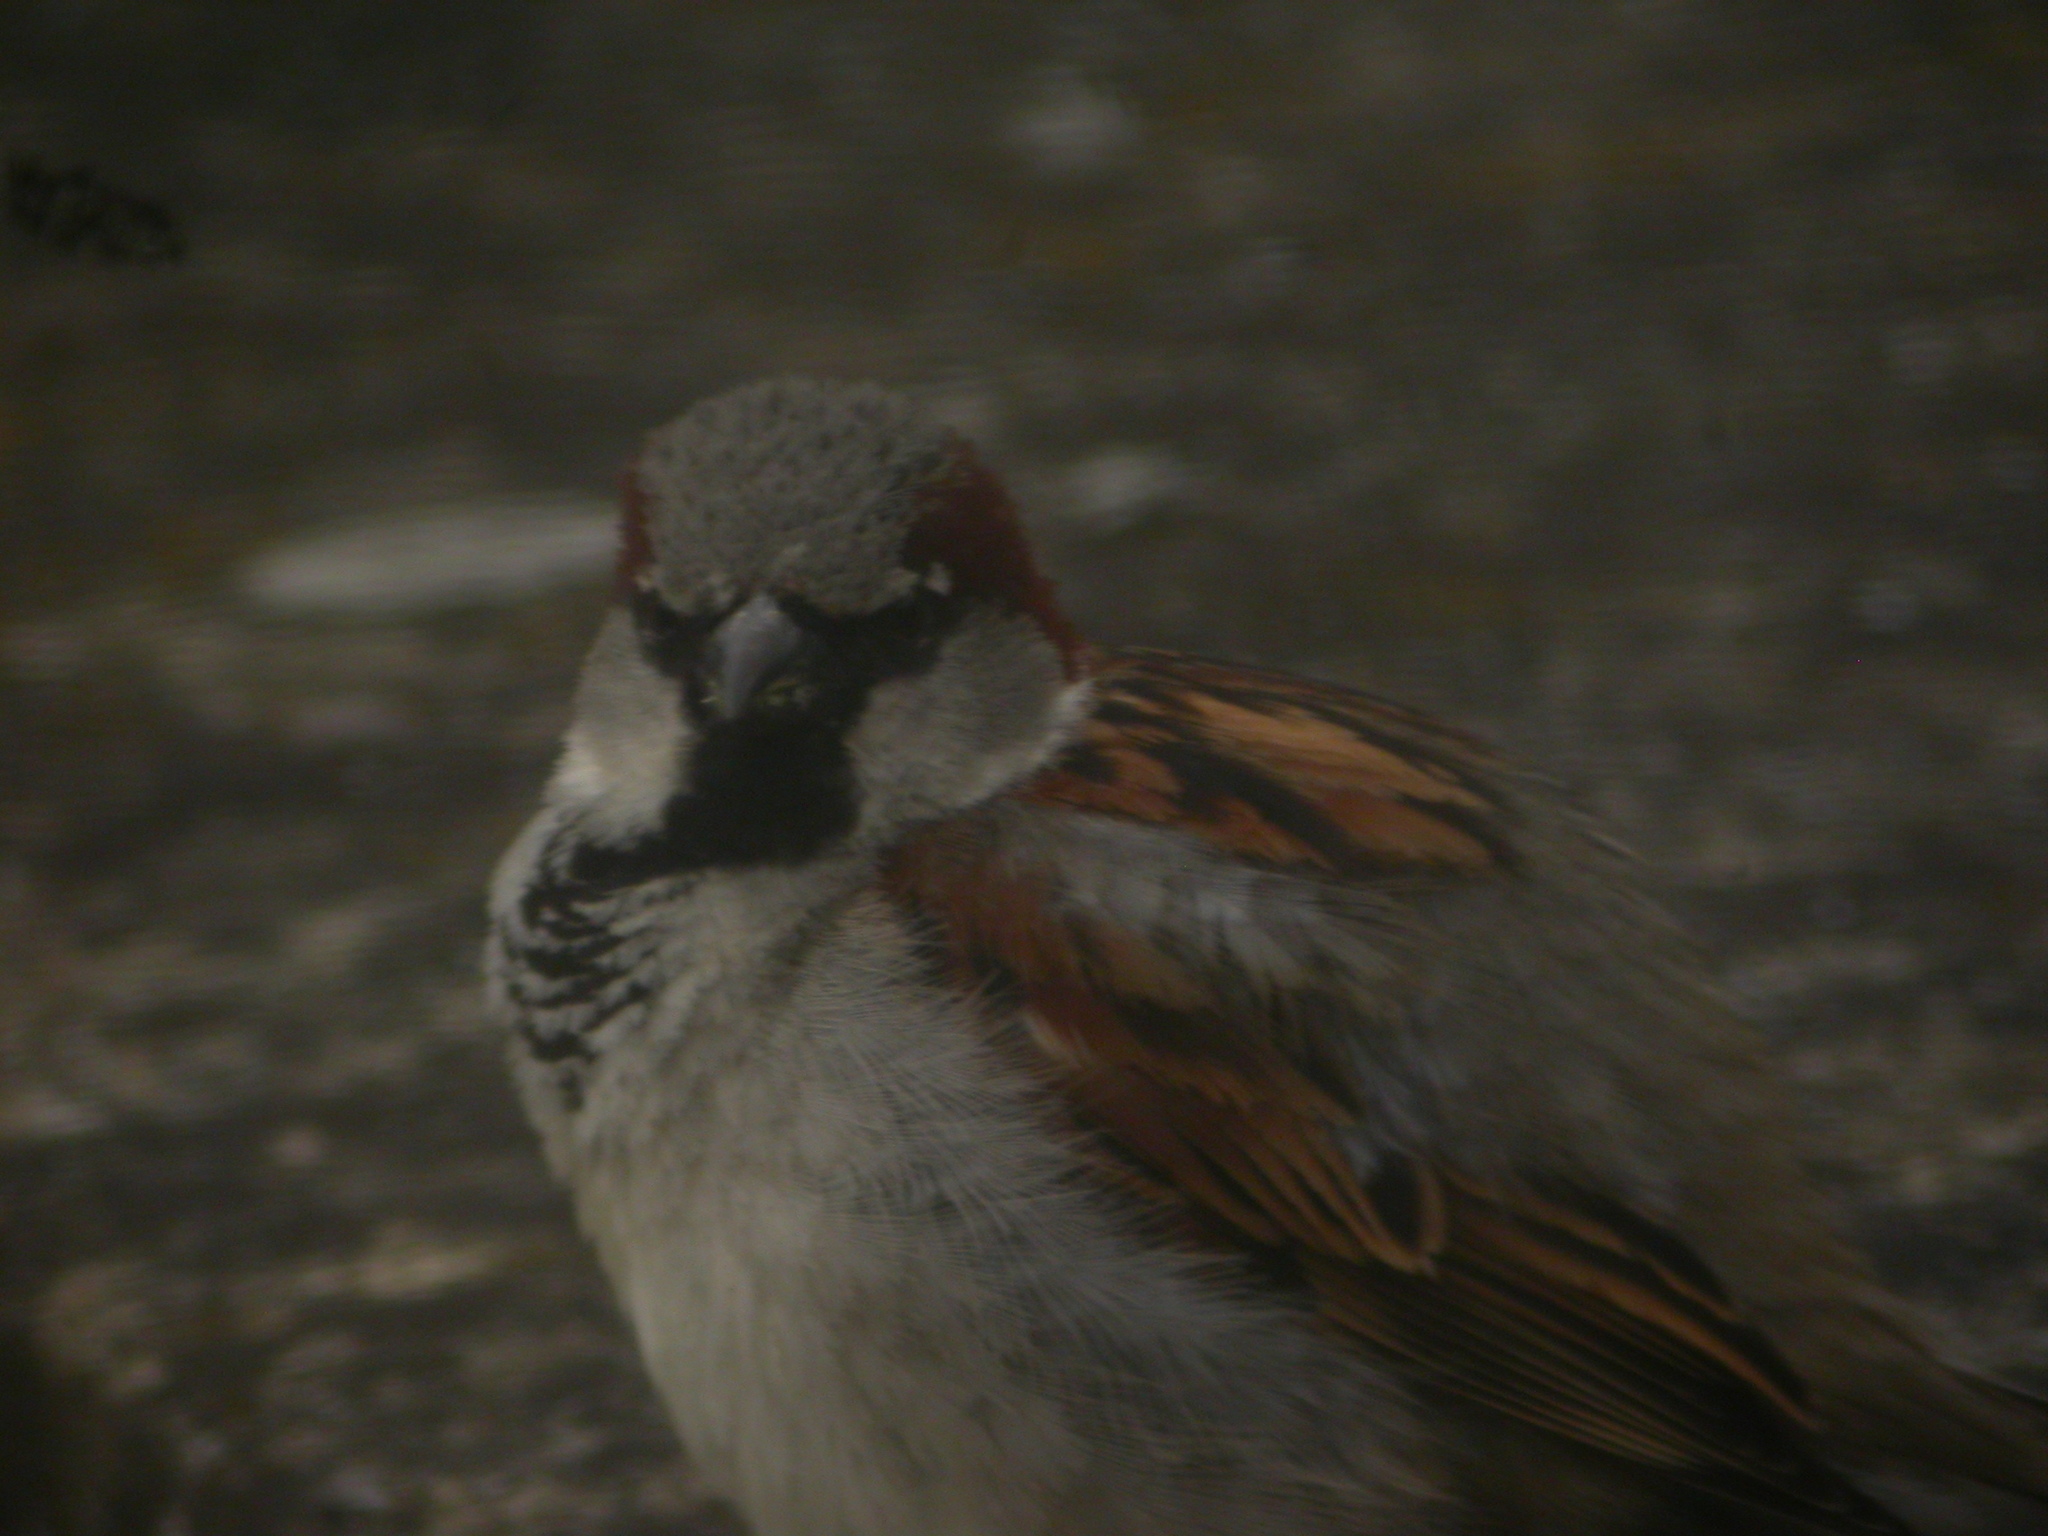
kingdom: Animalia
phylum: Chordata
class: Aves
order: Passeriformes
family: Passeridae
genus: Passer
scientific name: Passer domesticus
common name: House sparrow
